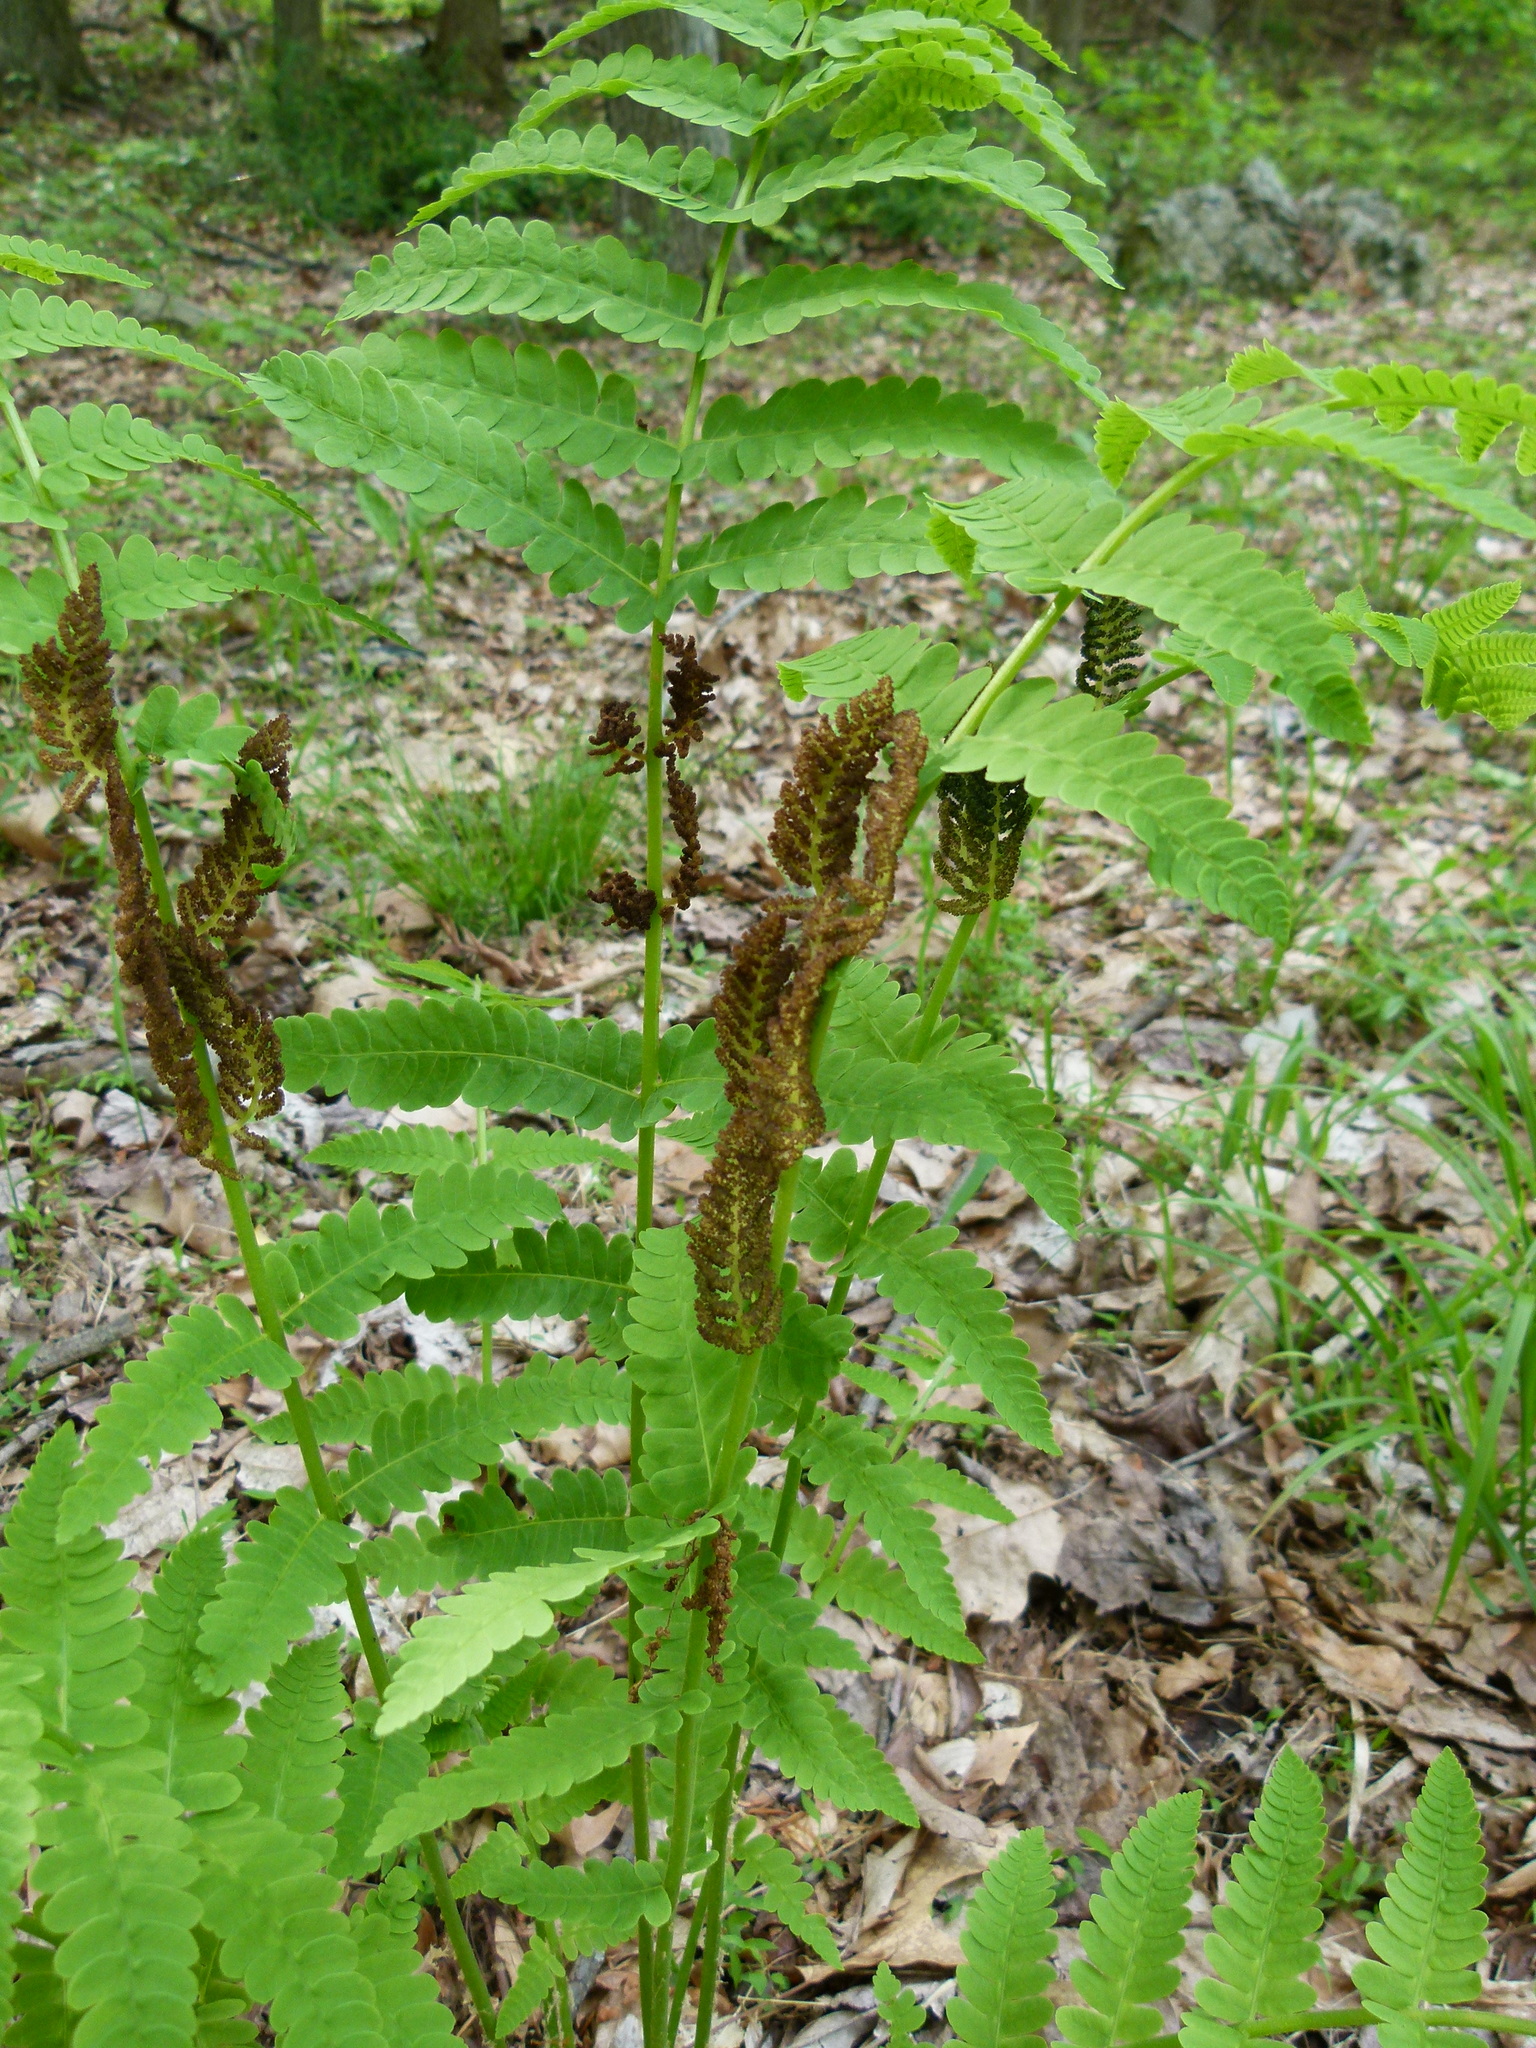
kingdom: Plantae
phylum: Tracheophyta
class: Polypodiopsida
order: Osmundales
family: Osmundaceae
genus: Claytosmunda
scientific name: Claytosmunda claytoniana
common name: Clayton's fern
